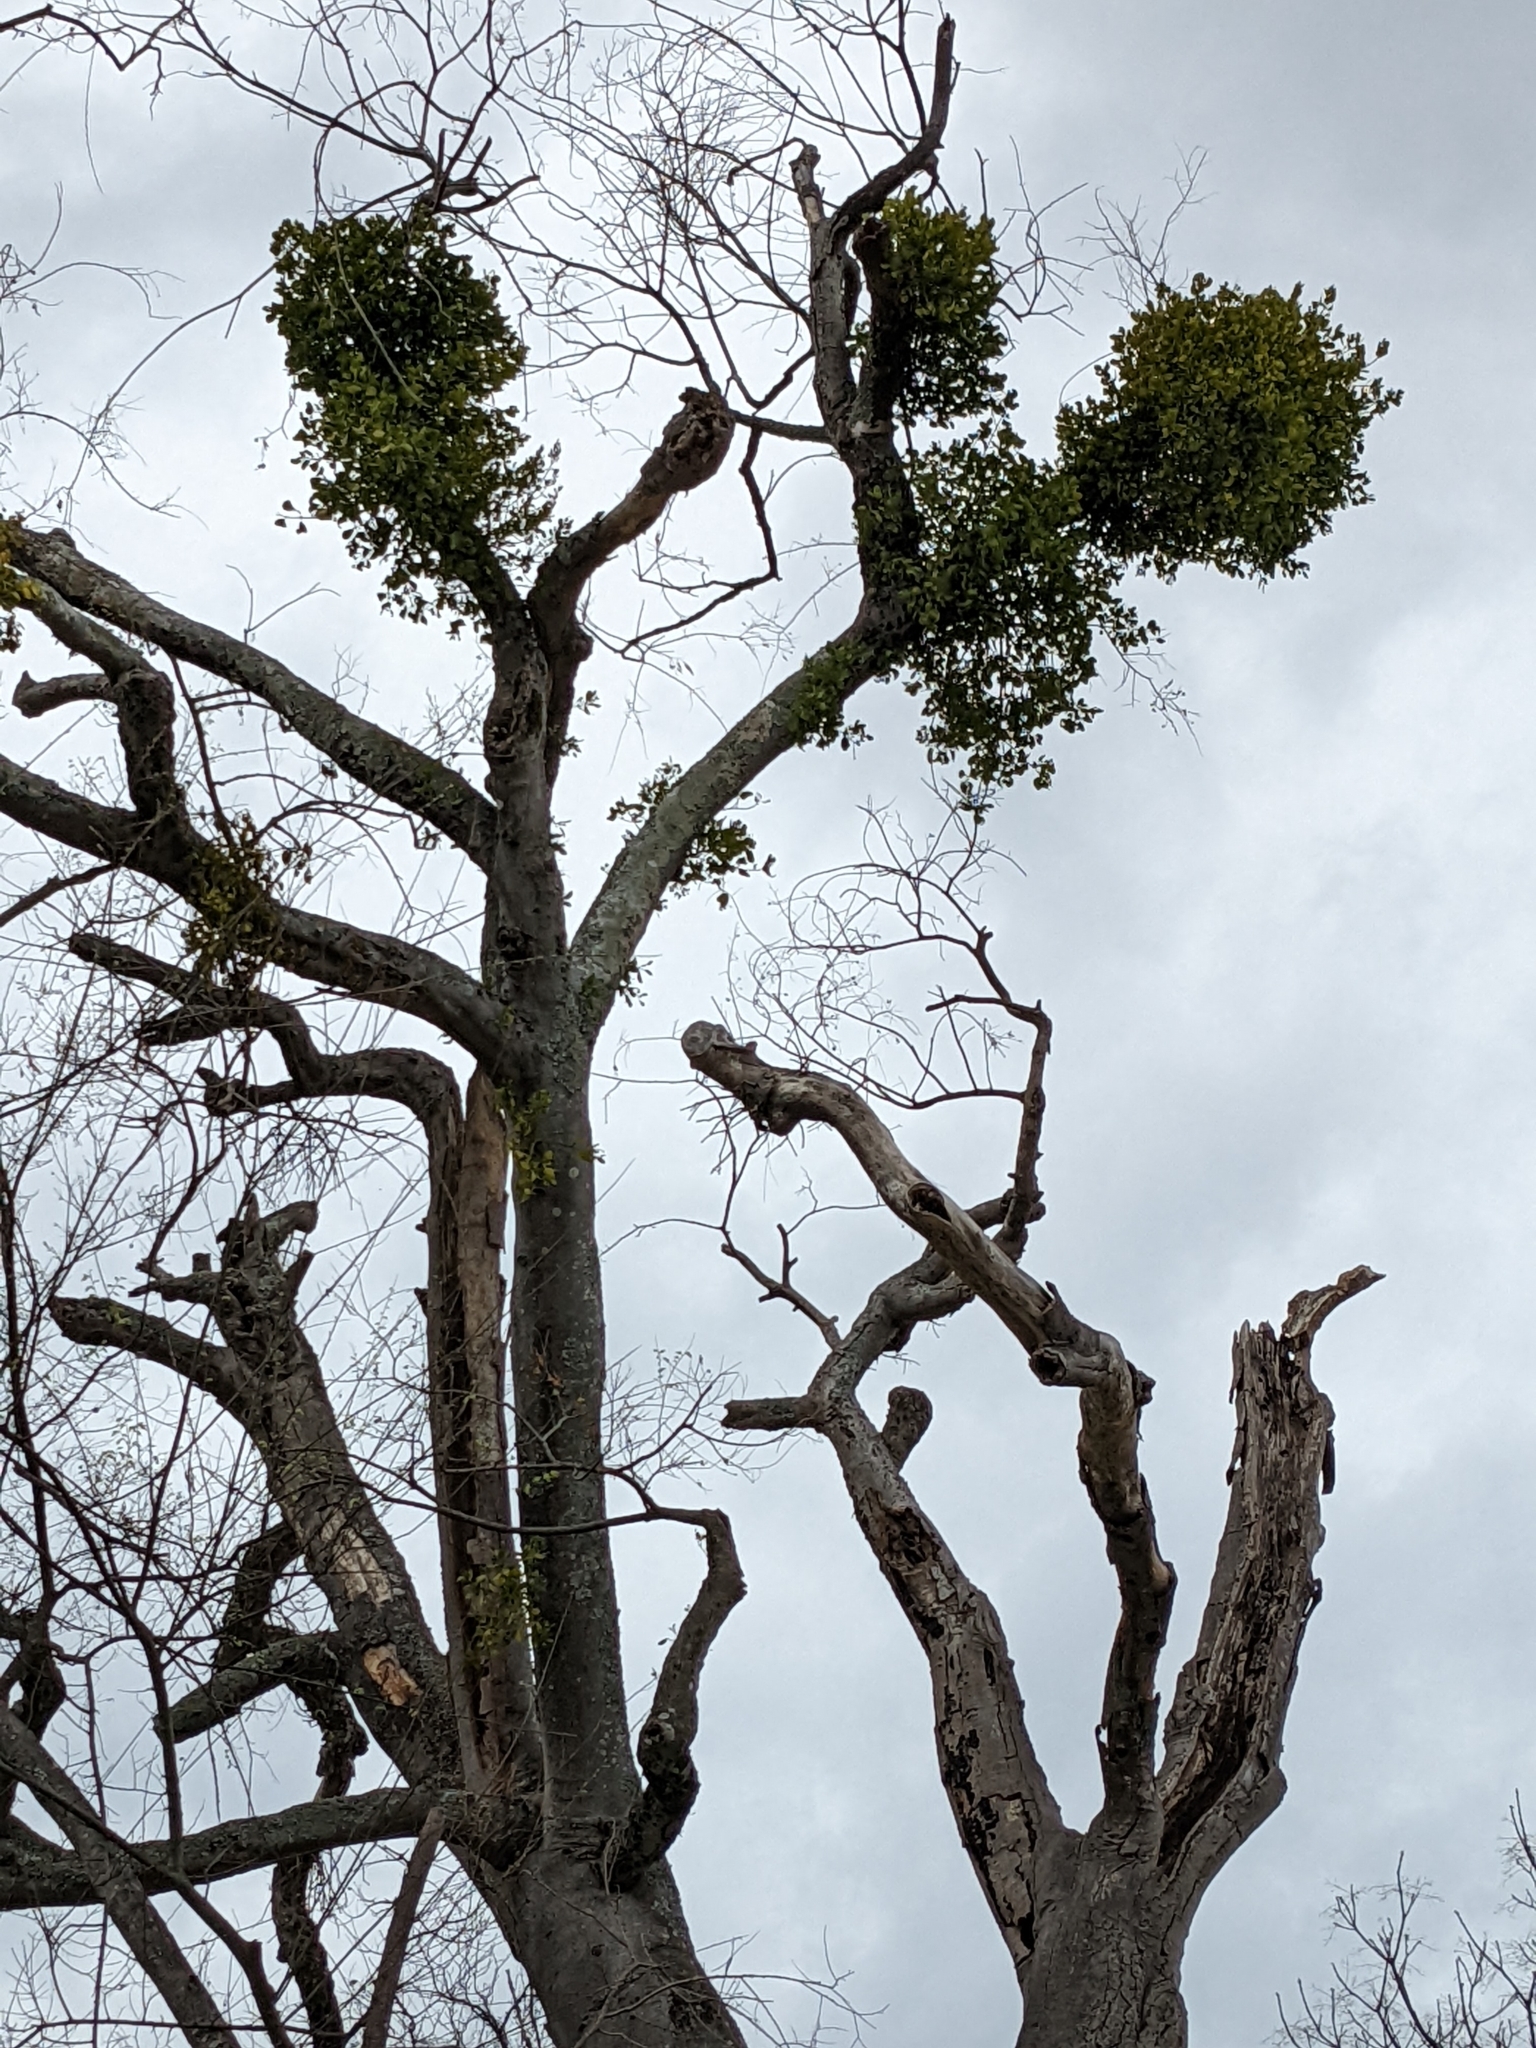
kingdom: Plantae
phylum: Tracheophyta
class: Magnoliopsida
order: Santalales
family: Viscaceae
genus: Phoradendron
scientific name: Phoradendron leucarpum
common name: Pacific mistletoe
